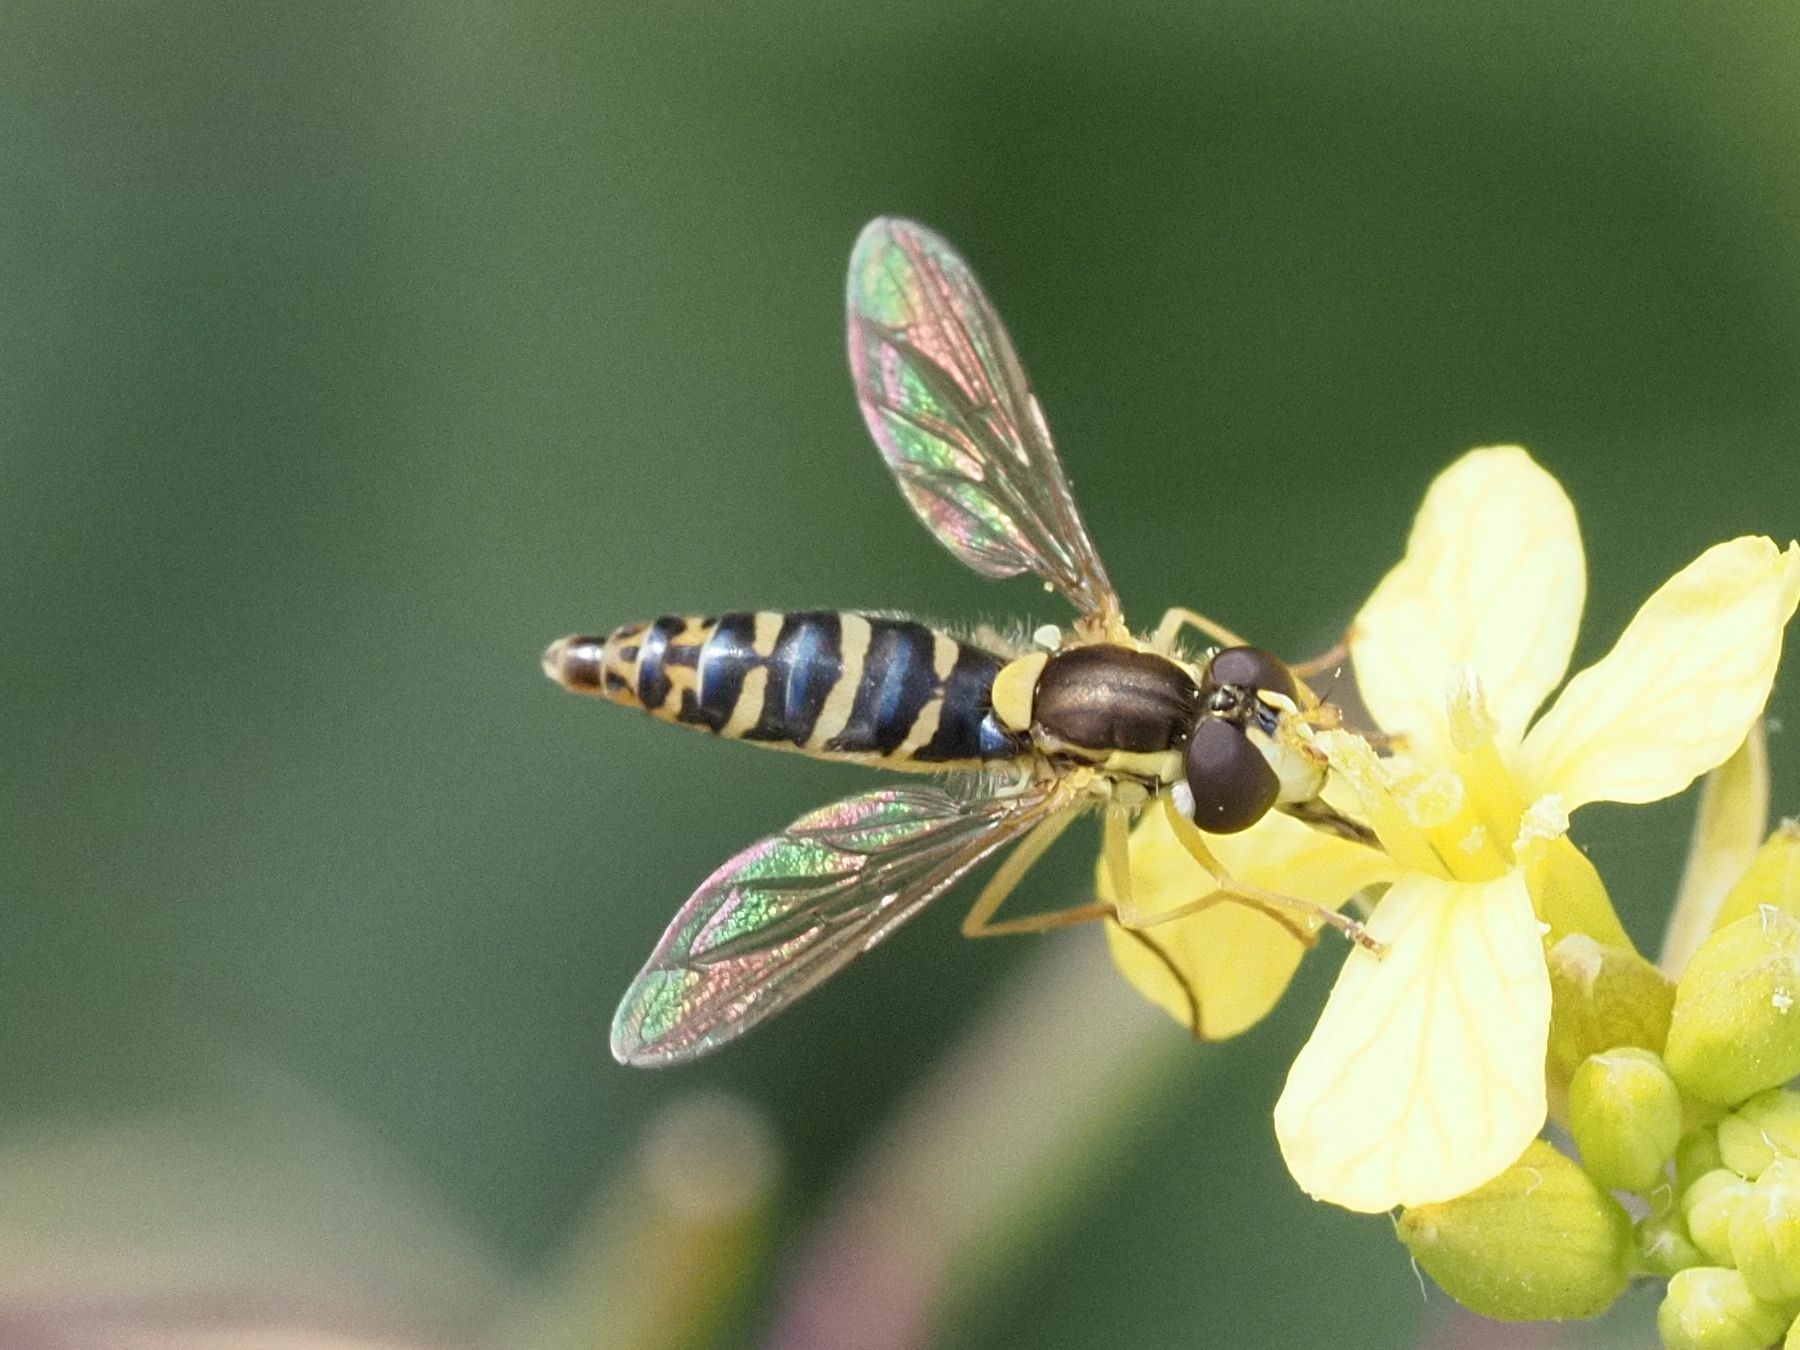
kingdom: Animalia
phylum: Arthropoda
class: Insecta
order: Diptera
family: Syrphidae
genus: Sphaerophoria
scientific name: Sphaerophoria scripta
